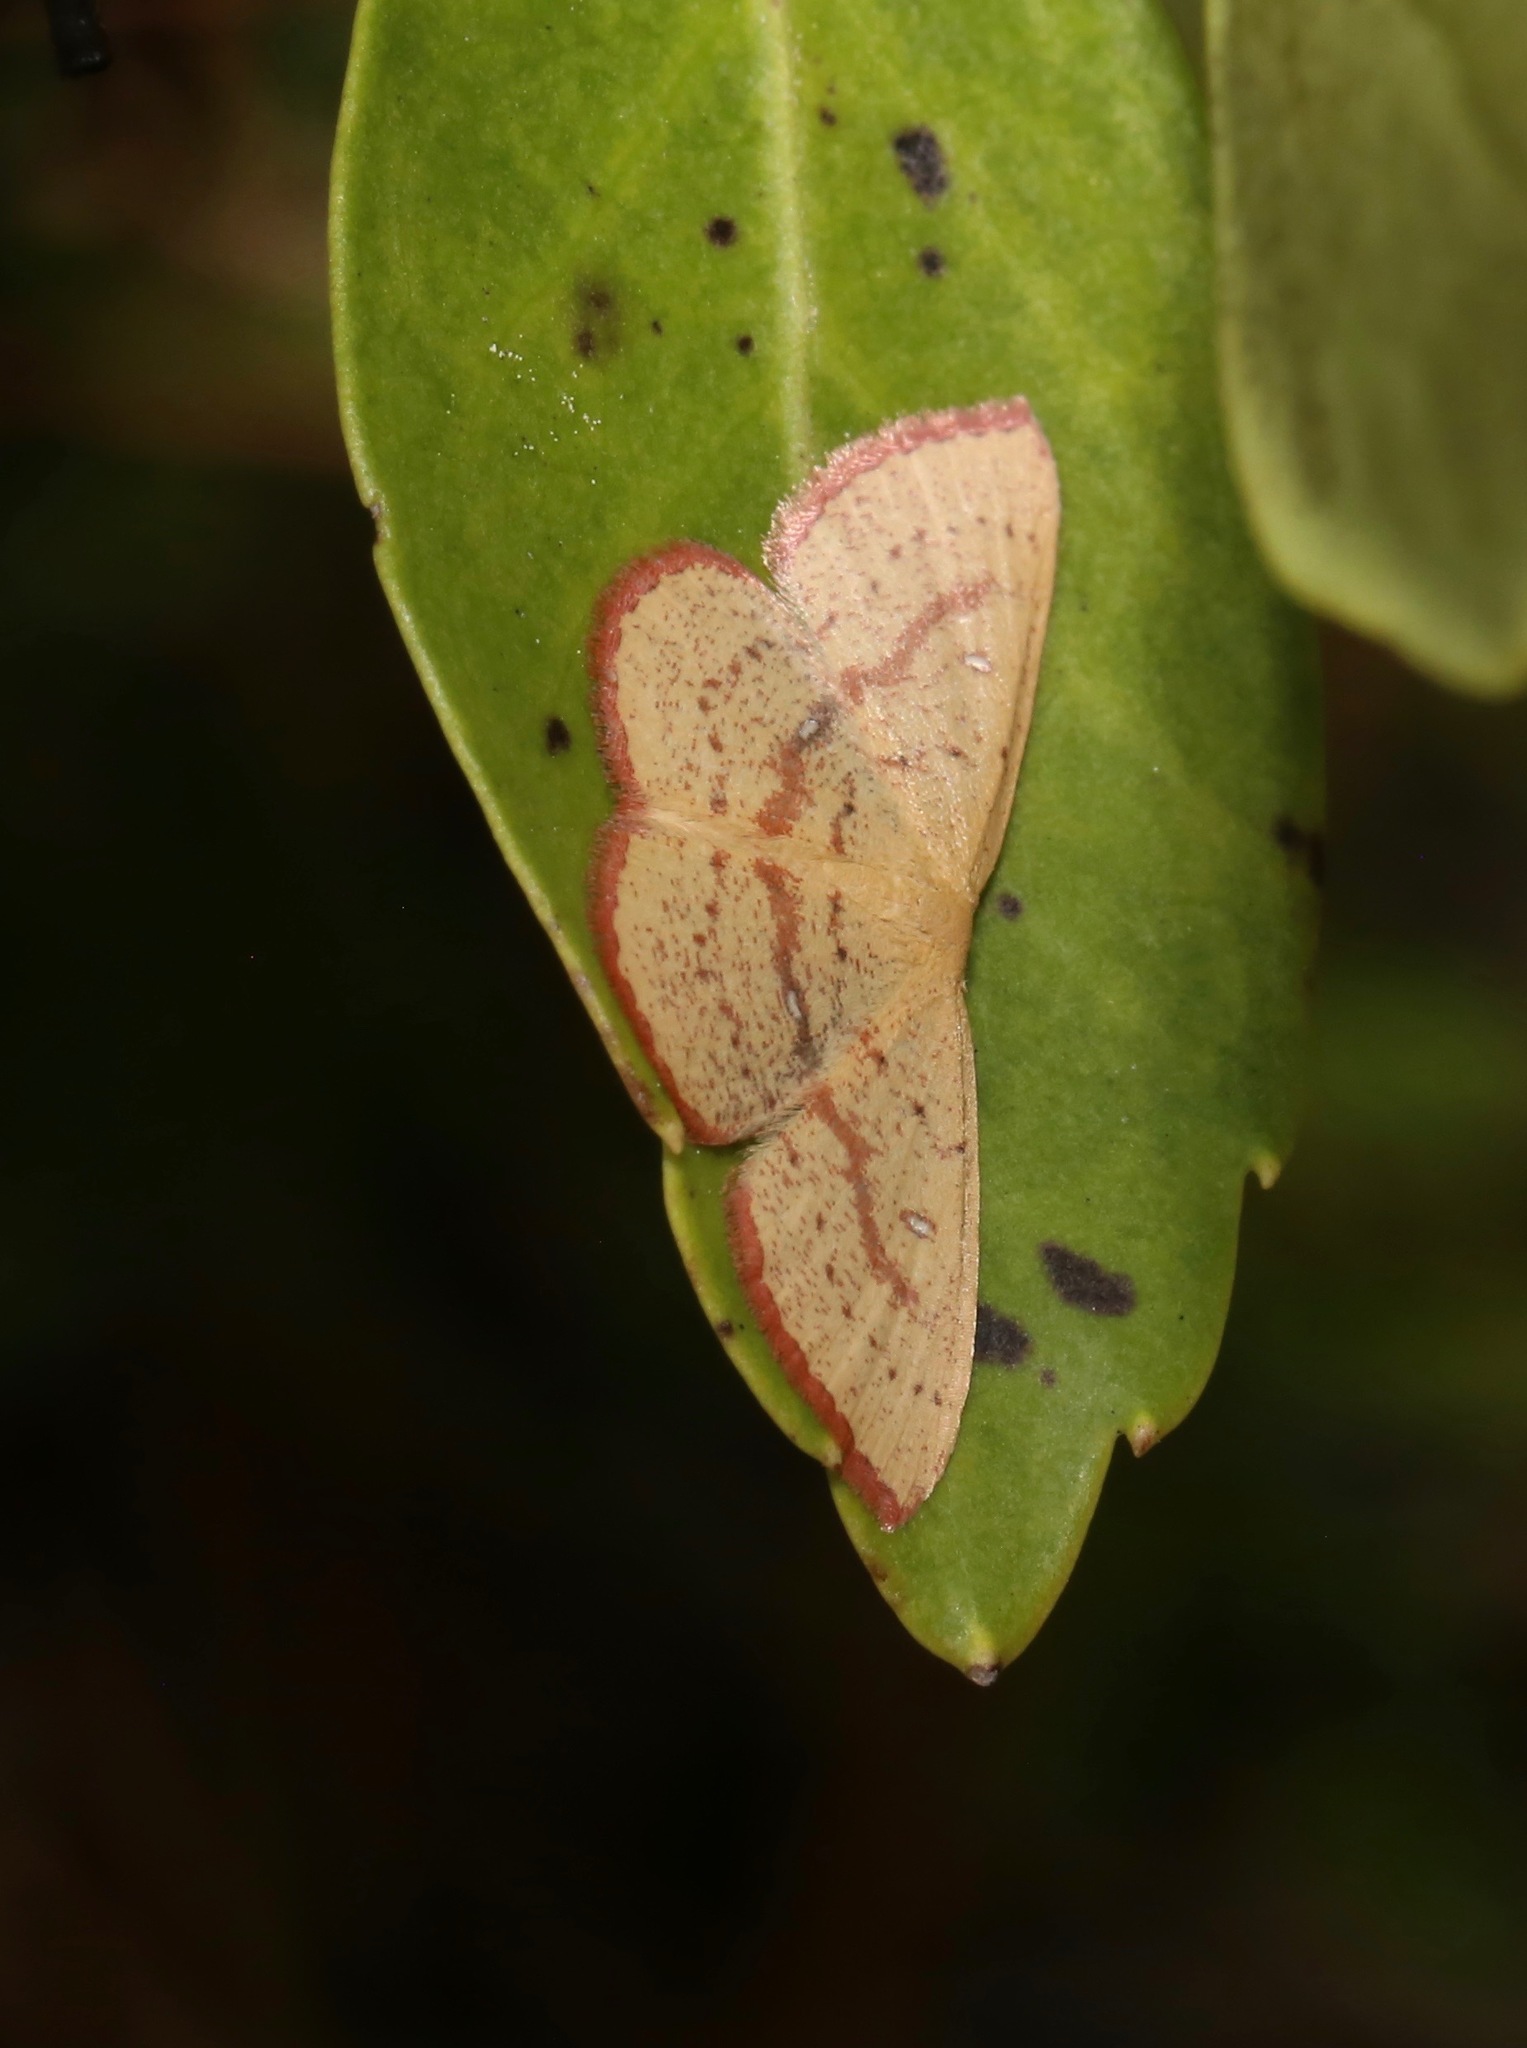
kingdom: Animalia
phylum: Arthropoda
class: Insecta
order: Lepidoptera
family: Geometridae
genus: Cyclophora
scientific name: Cyclophora culicaria
